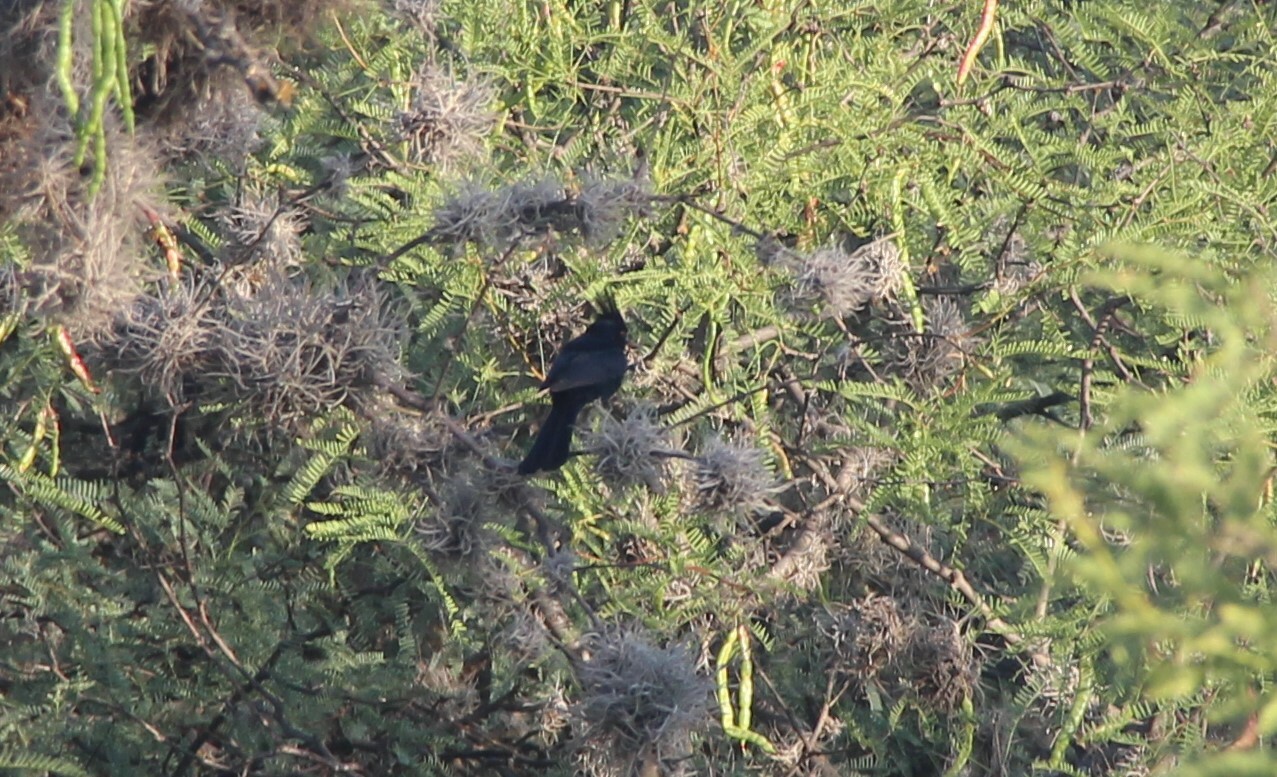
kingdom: Animalia
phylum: Chordata
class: Aves
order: Passeriformes
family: Ptilogonatidae
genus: Phainopepla
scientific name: Phainopepla nitens
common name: Phainopepla
